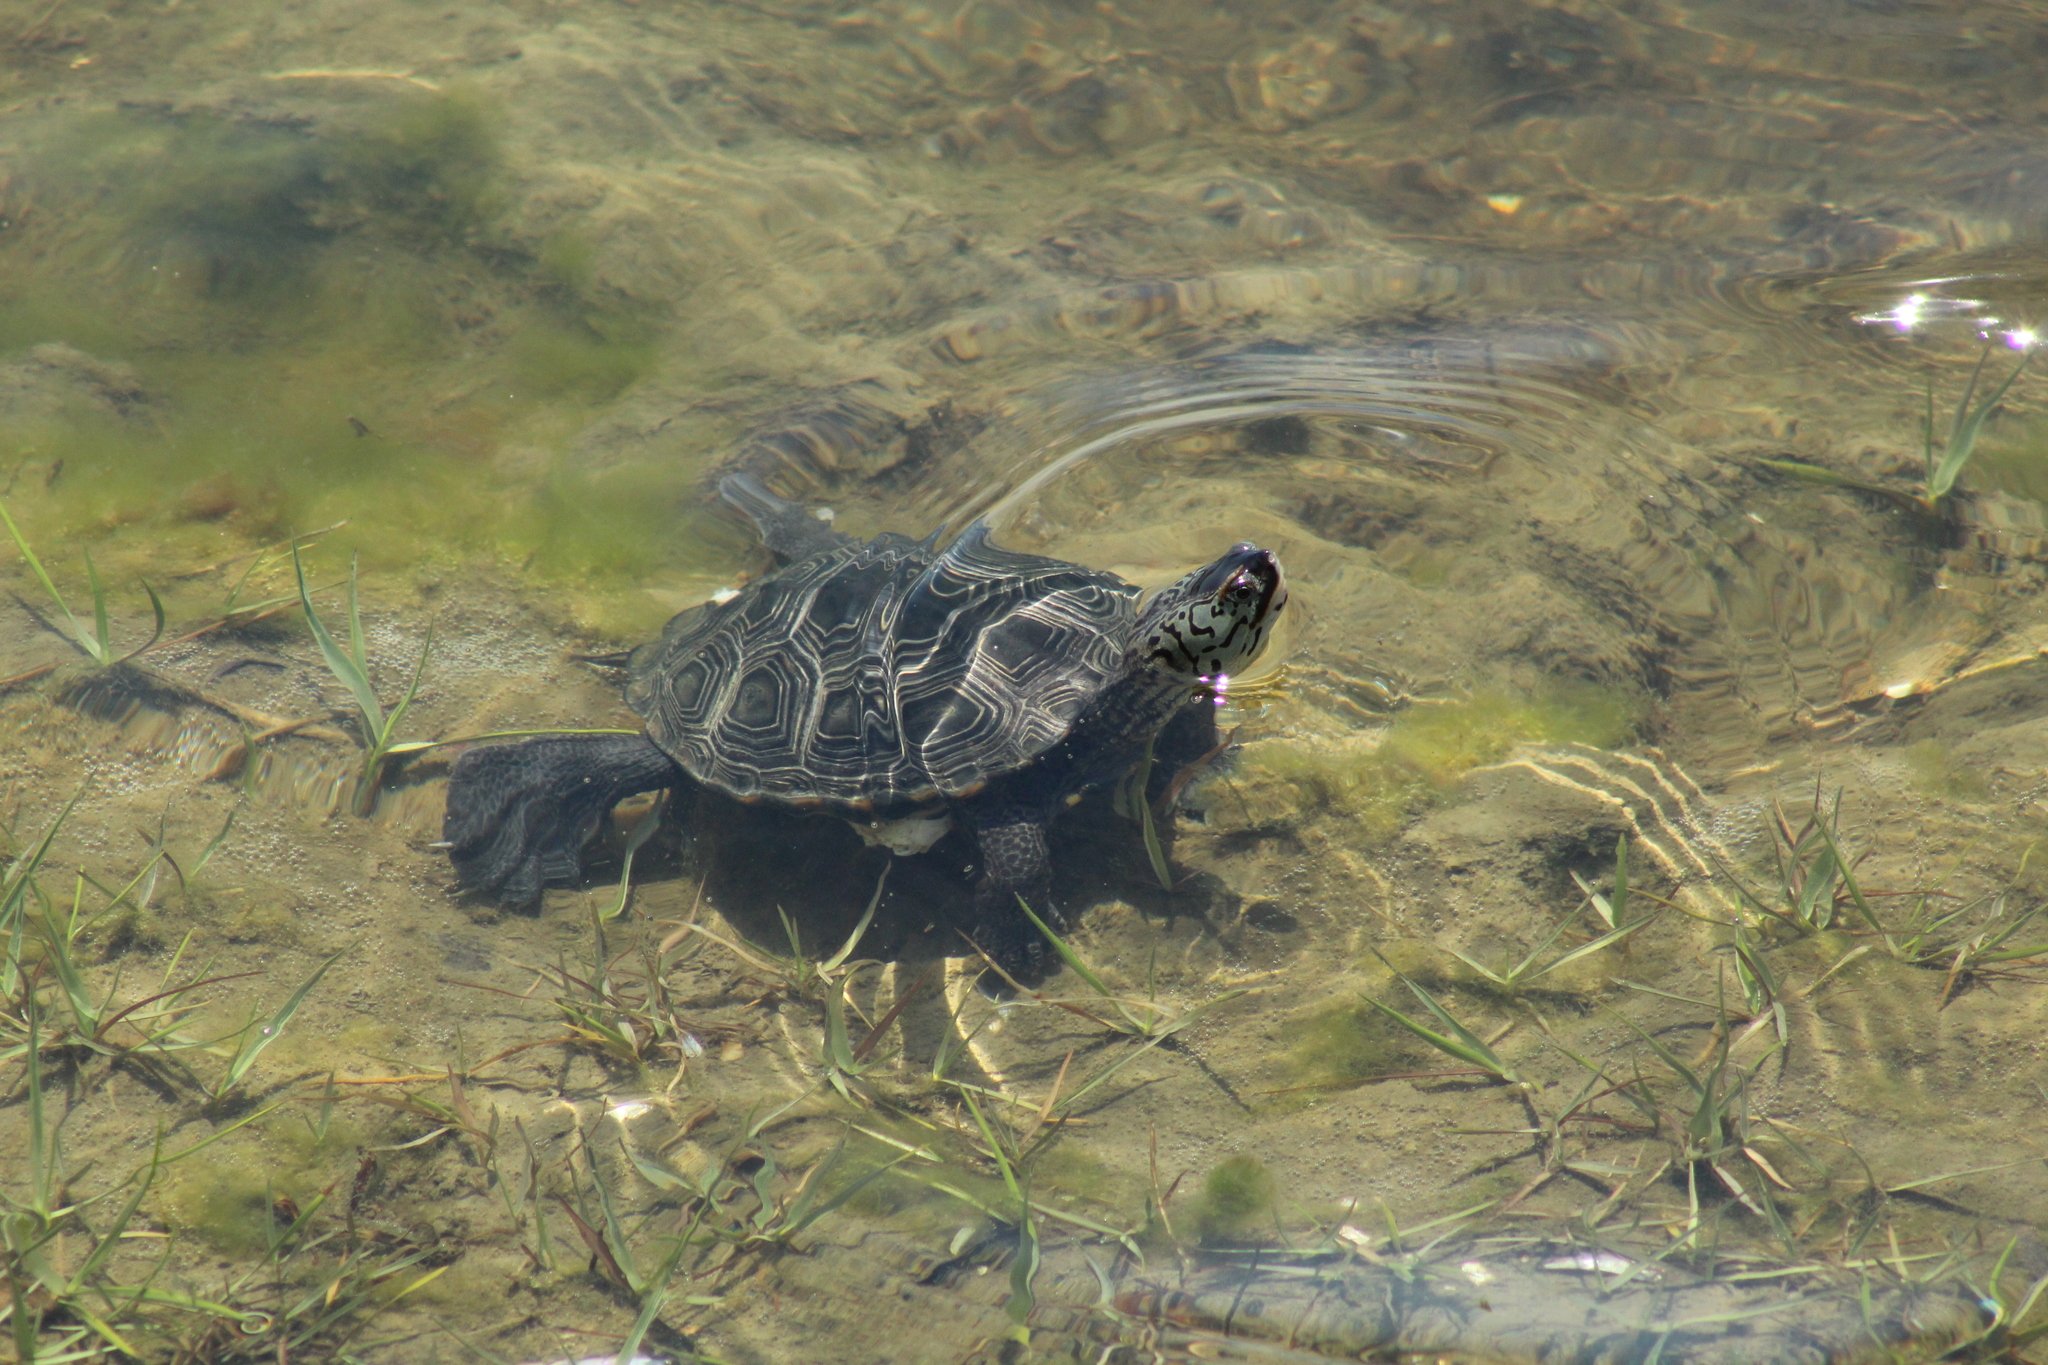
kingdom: Animalia
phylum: Chordata
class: Testudines
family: Emydidae
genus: Malaclemys
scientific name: Malaclemys terrapin
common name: Diamondback terrapin
